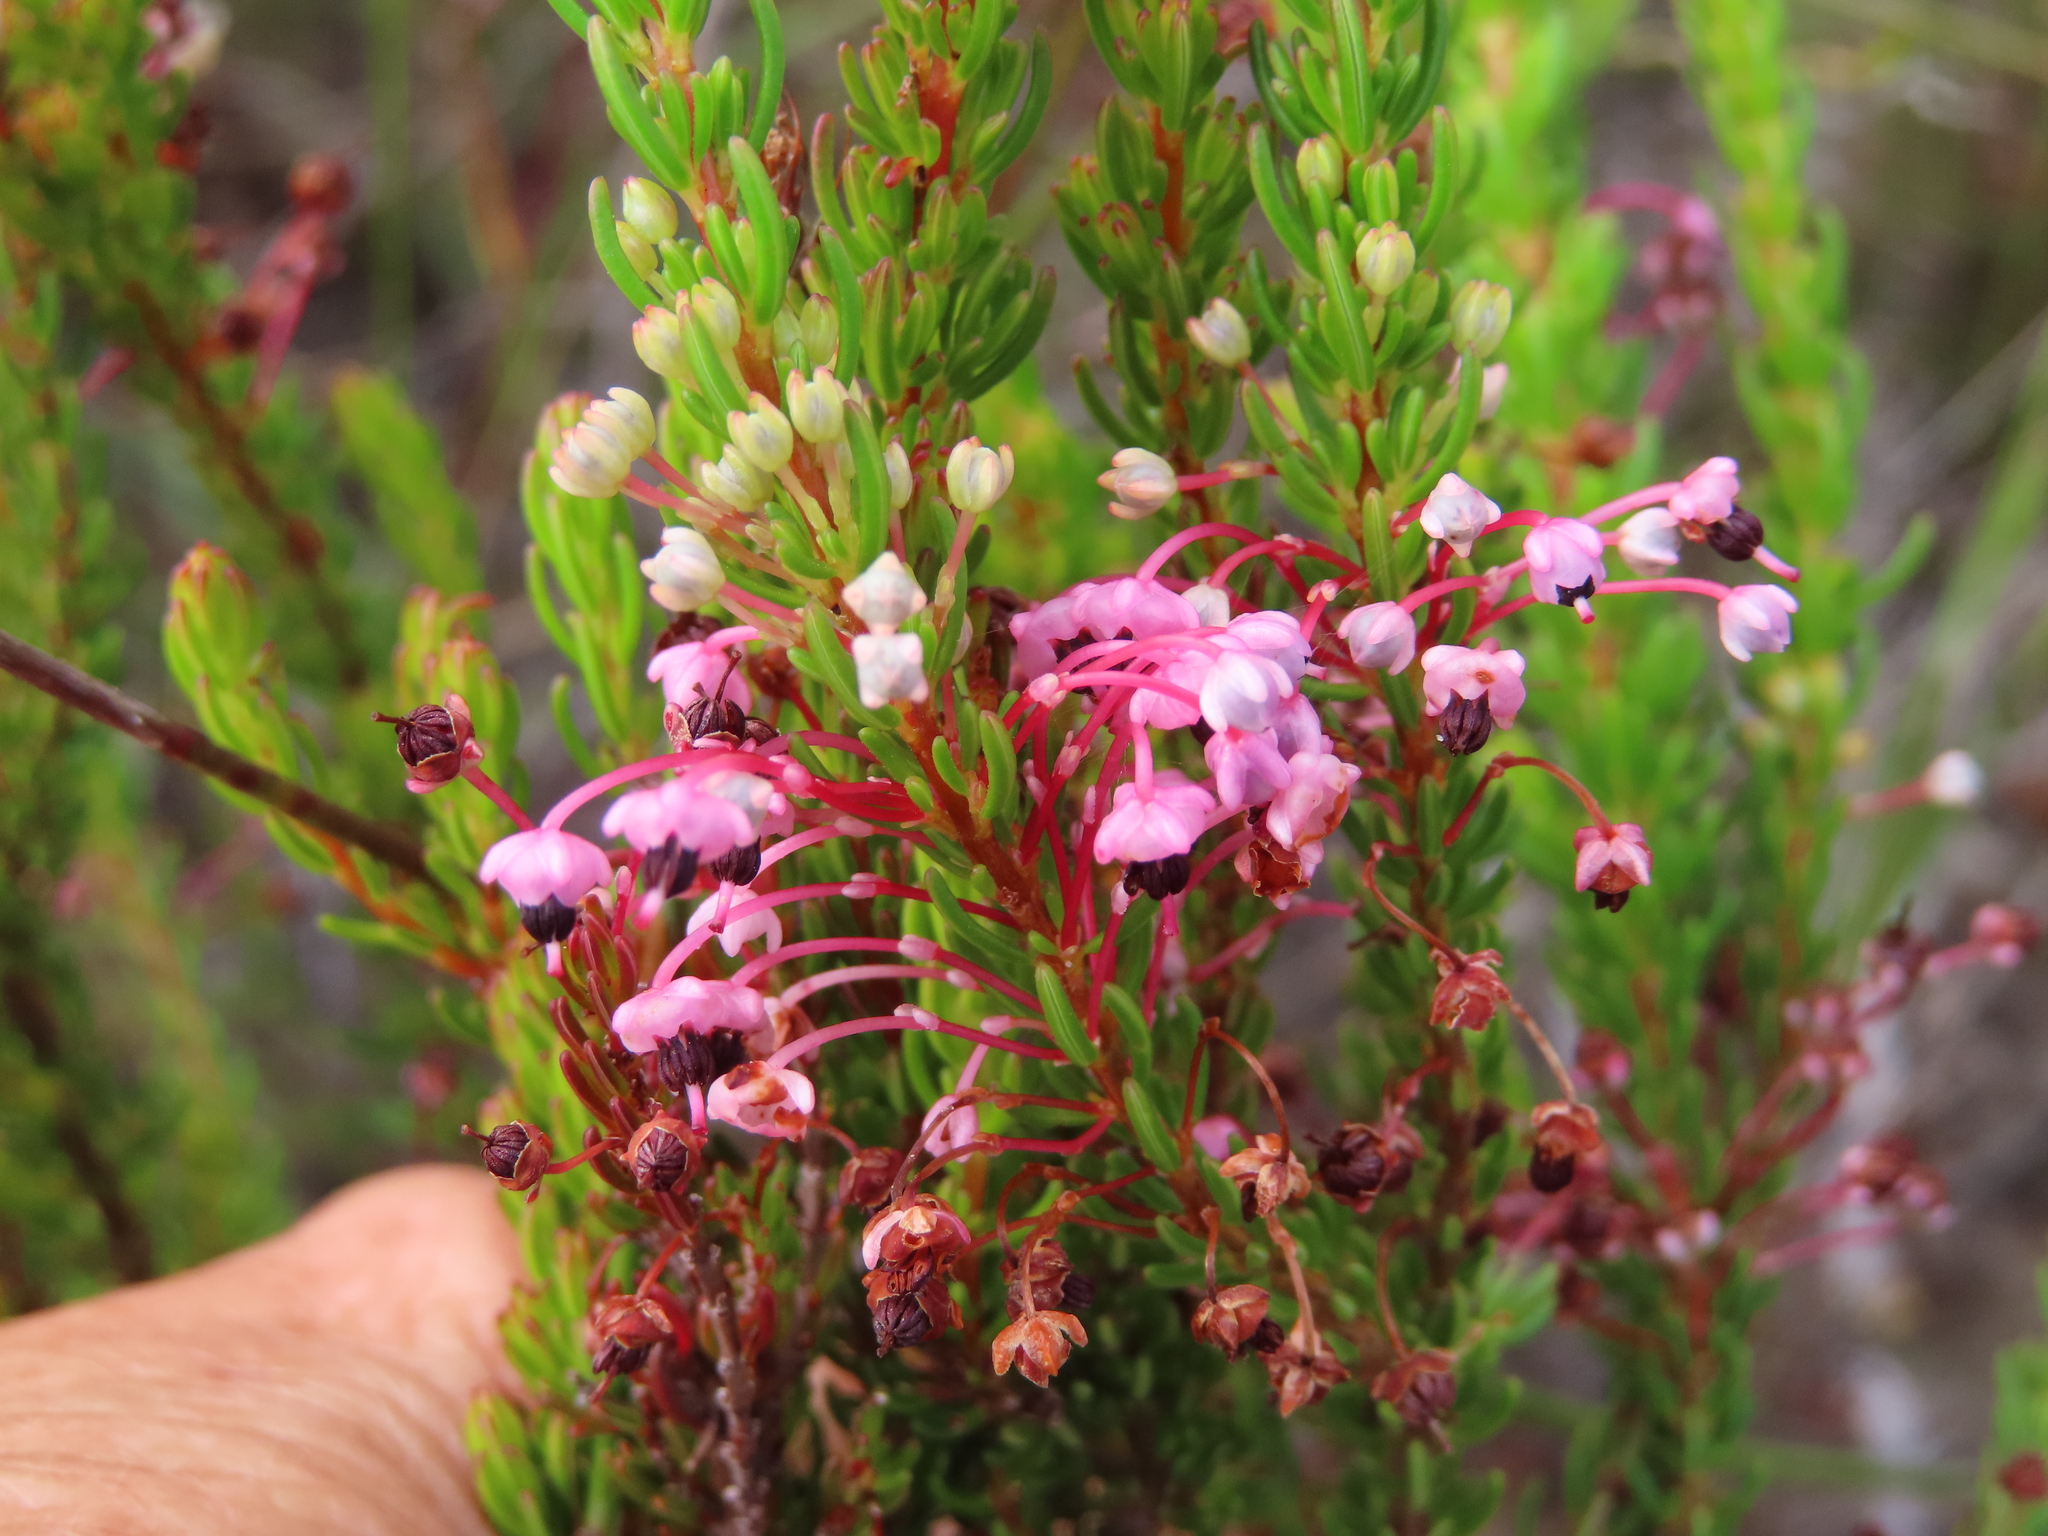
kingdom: Plantae
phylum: Tracheophyta
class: Magnoliopsida
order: Ericales
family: Ericaceae
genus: Erica
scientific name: Erica rubiginosa
